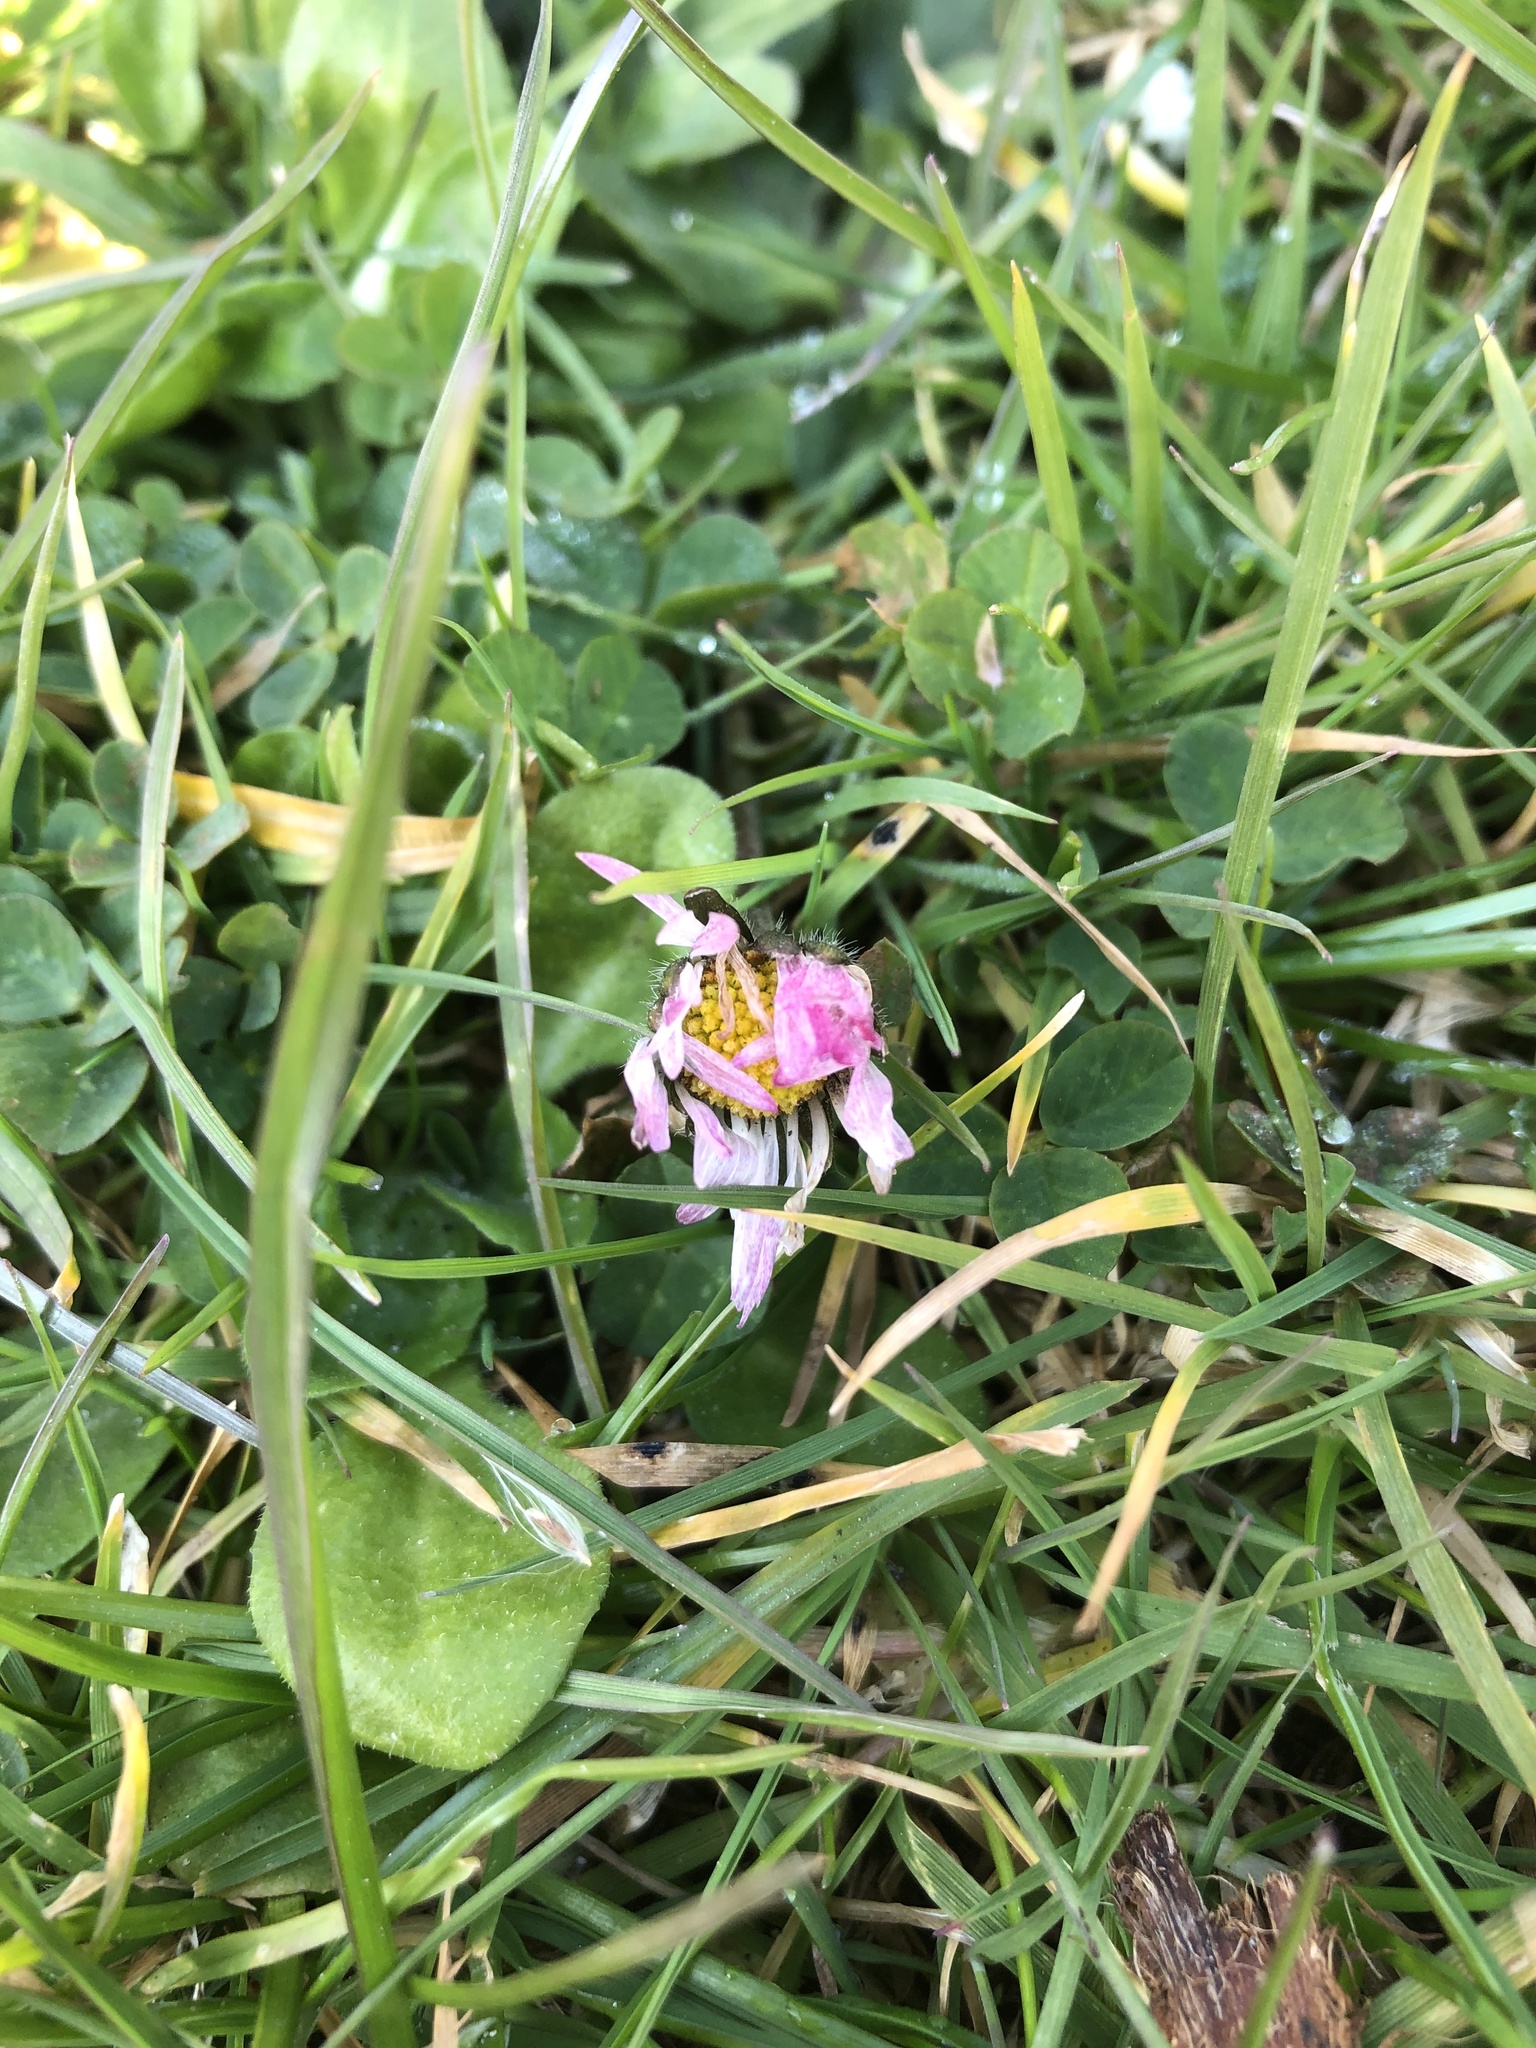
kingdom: Plantae
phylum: Tracheophyta
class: Magnoliopsida
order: Asterales
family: Asteraceae
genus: Bellis
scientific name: Bellis perennis
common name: Lawndaisy
